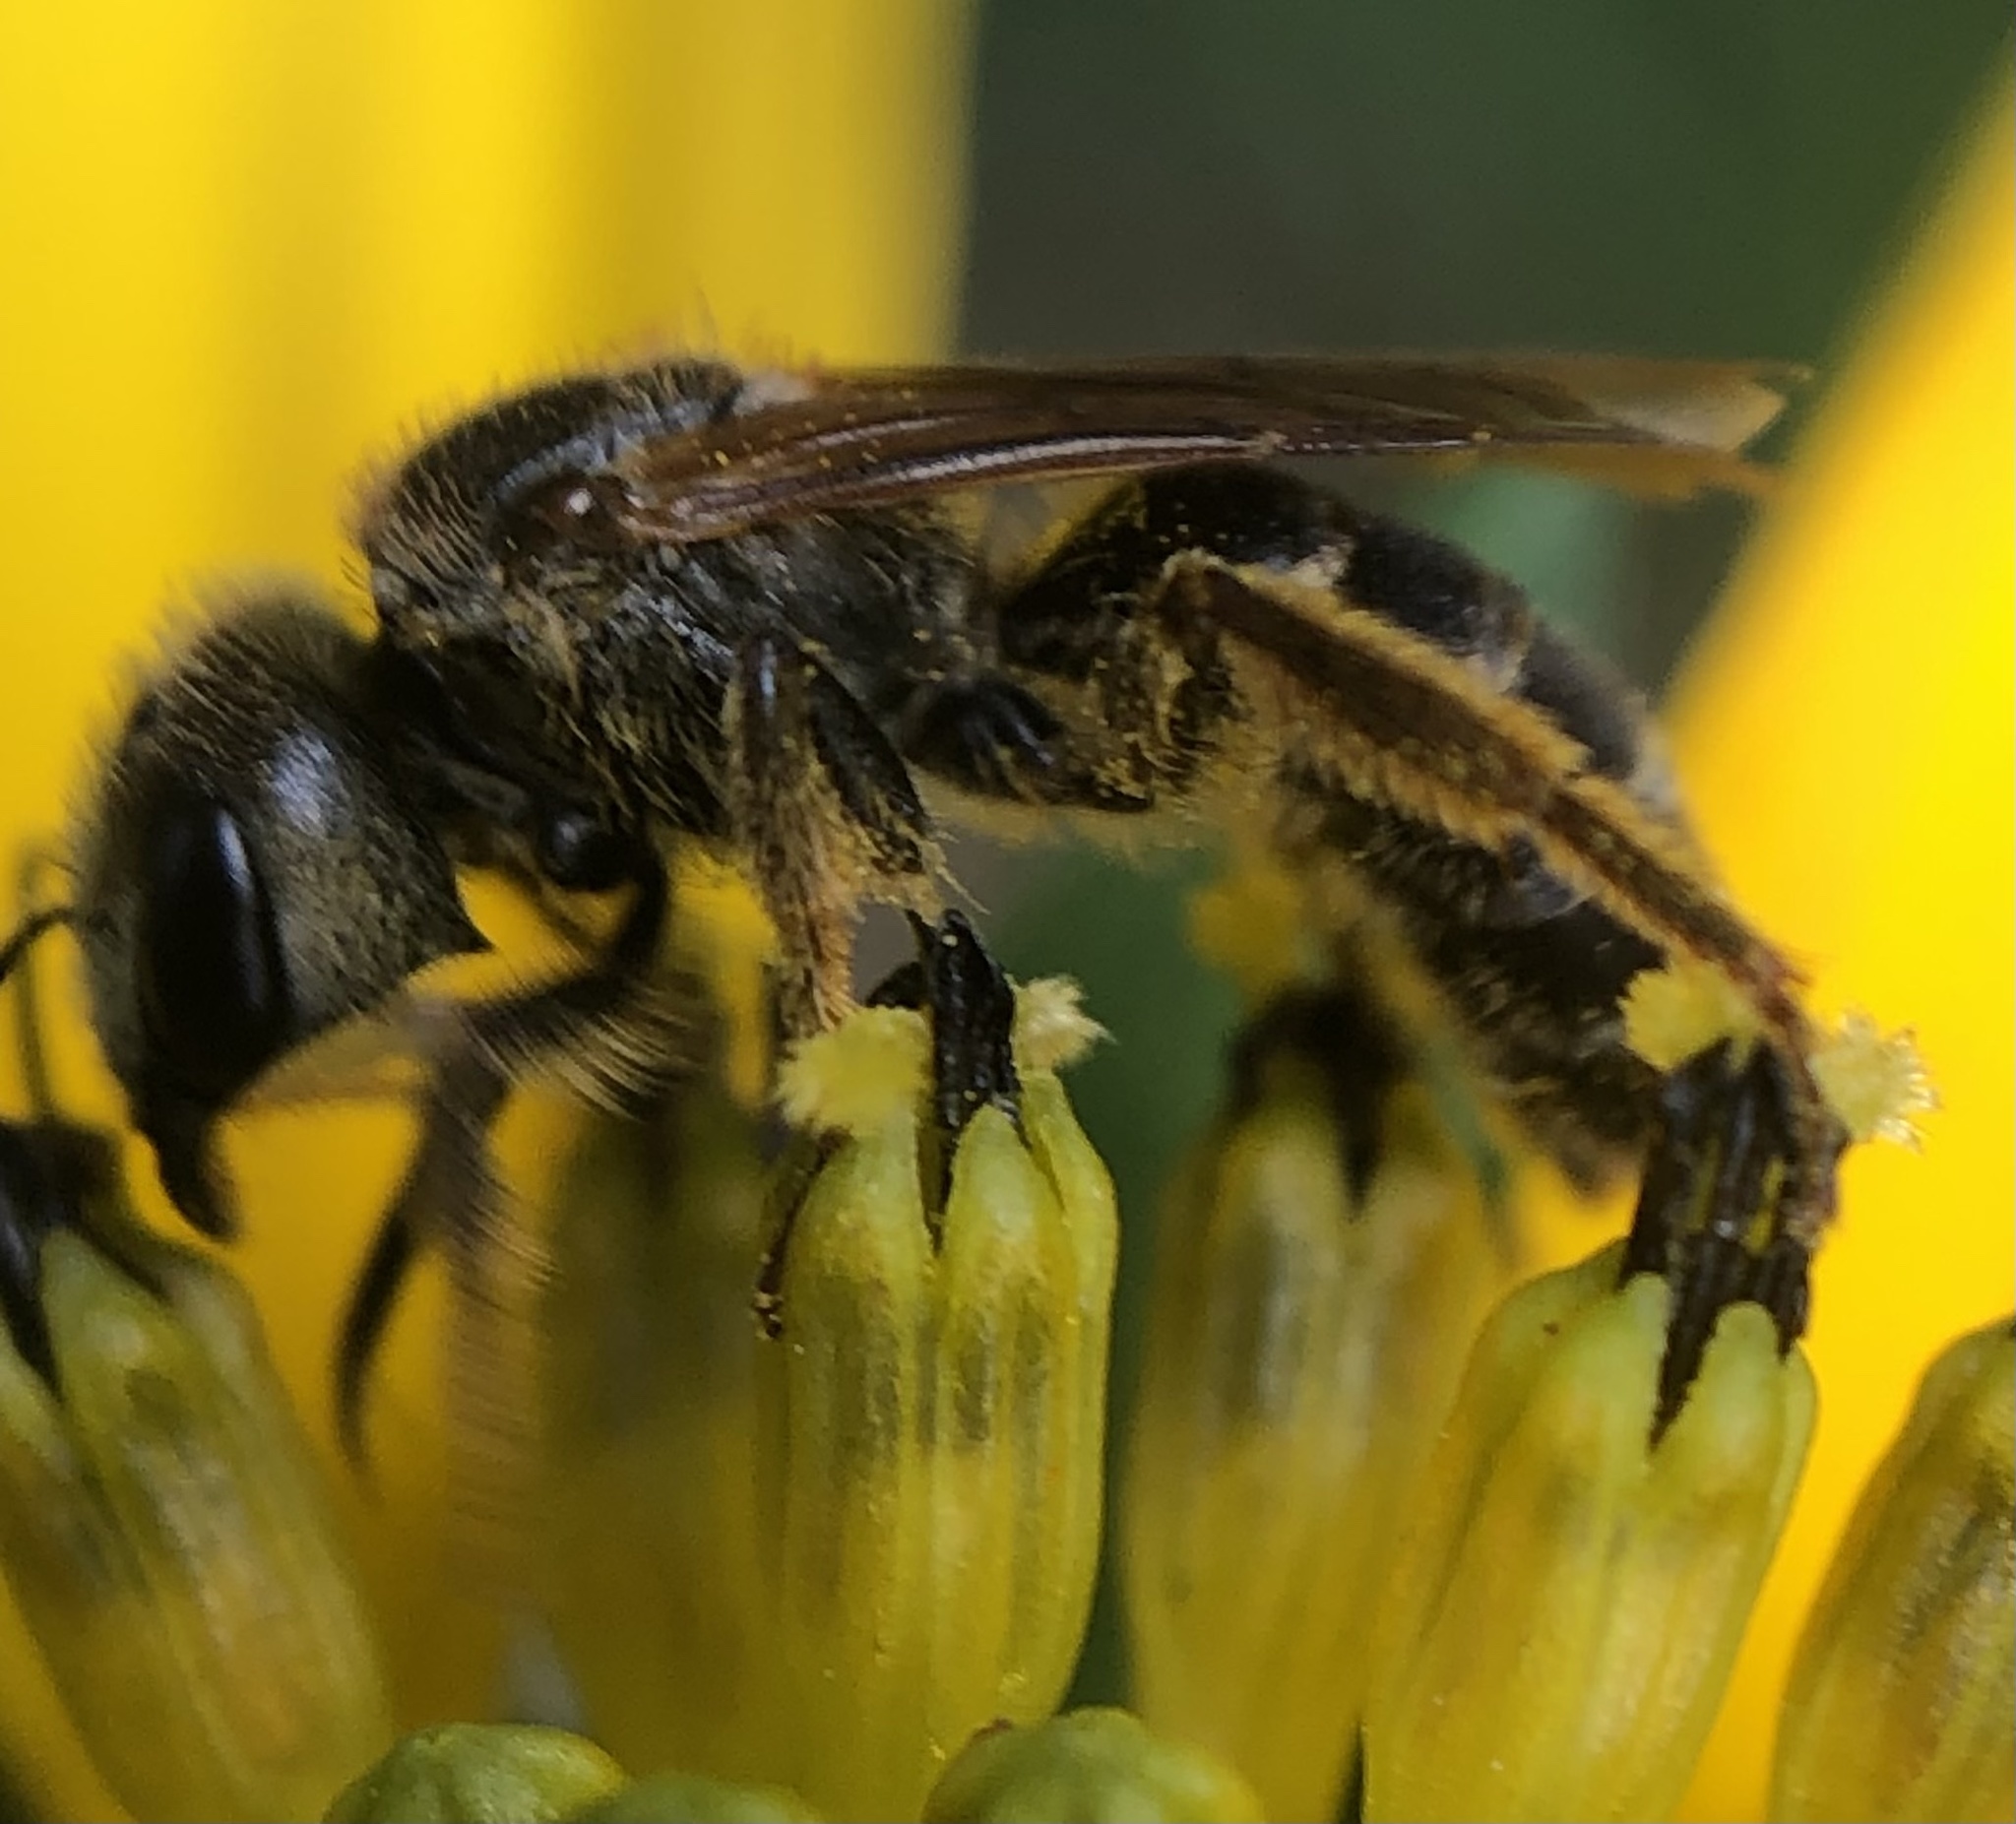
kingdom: Animalia
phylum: Arthropoda
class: Insecta
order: Hymenoptera
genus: Odontalictus
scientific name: Odontalictus
